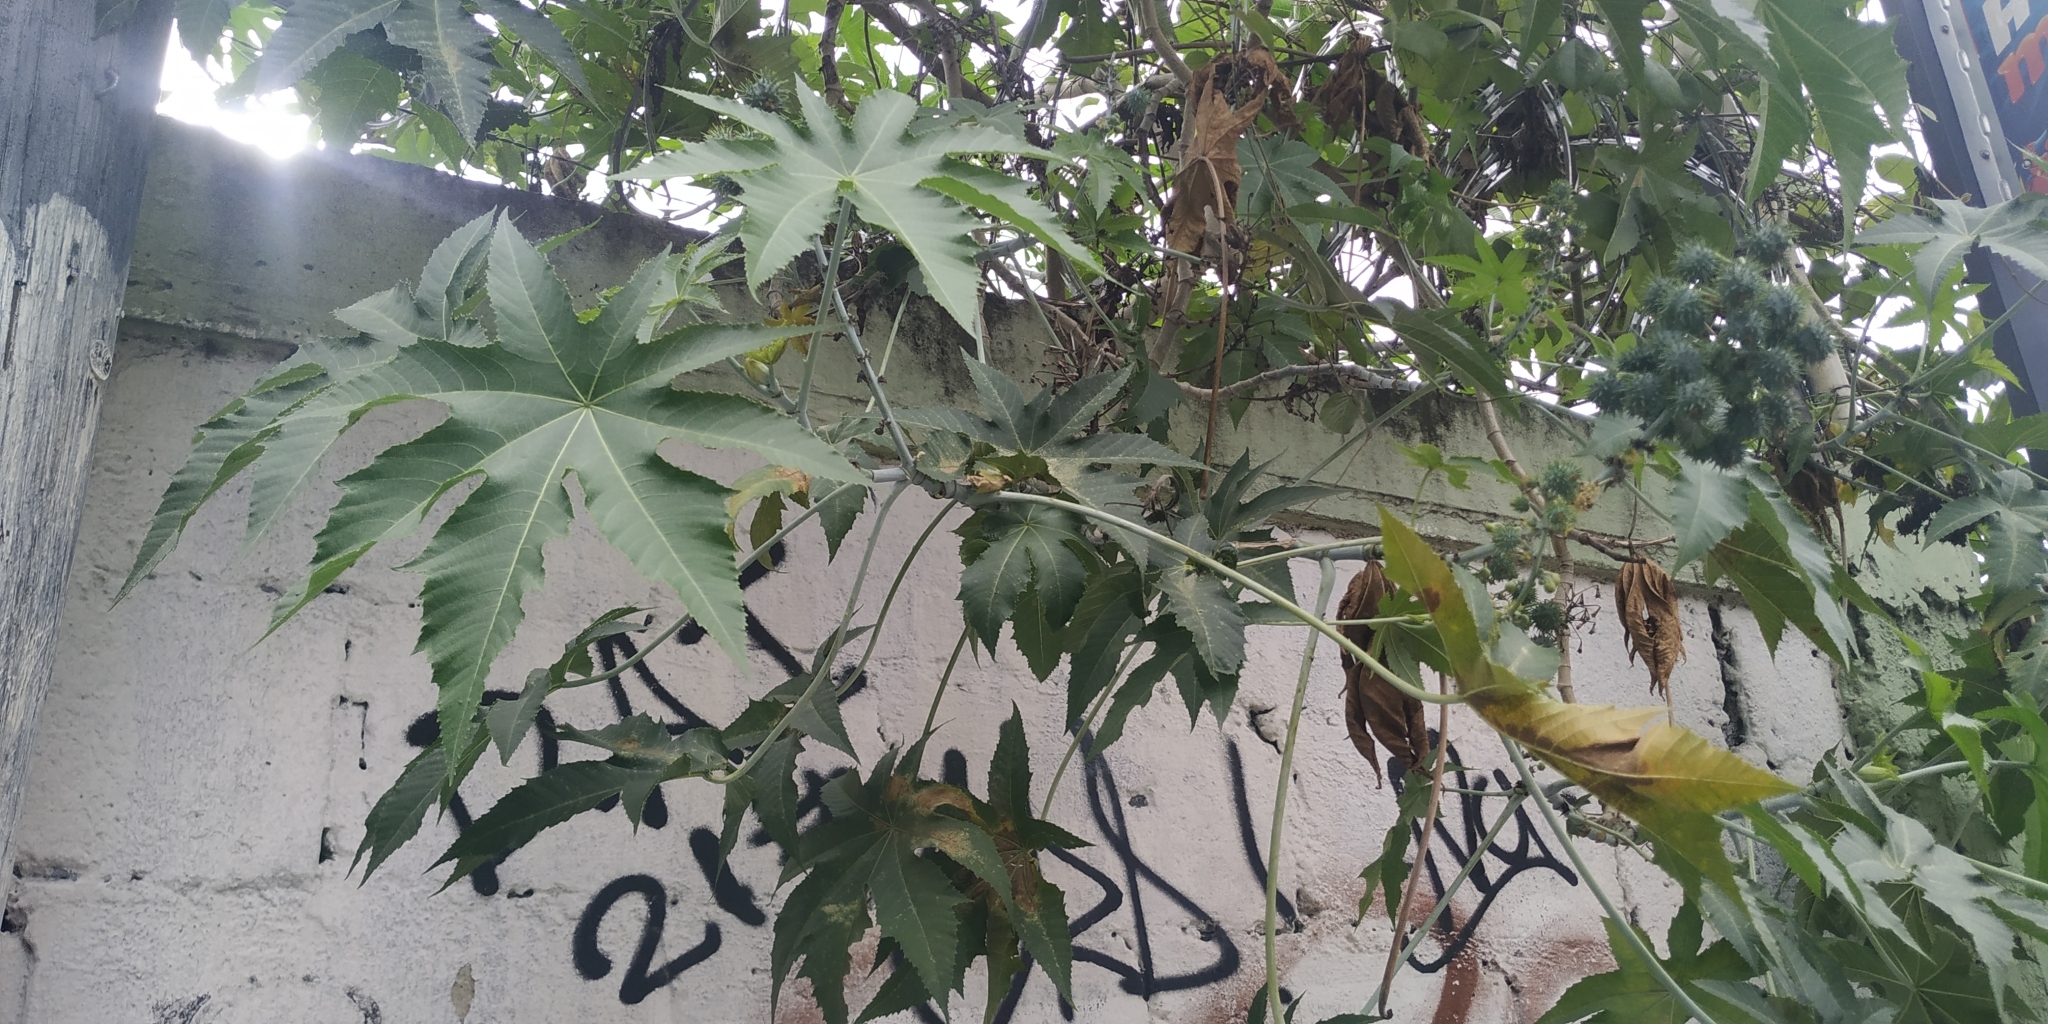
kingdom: Plantae
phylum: Tracheophyta
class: Magnoliopsida
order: Malpighiales
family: Euphorbiaceae
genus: Ricinus
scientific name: Ricinus communis
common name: Castor-oil-plant
